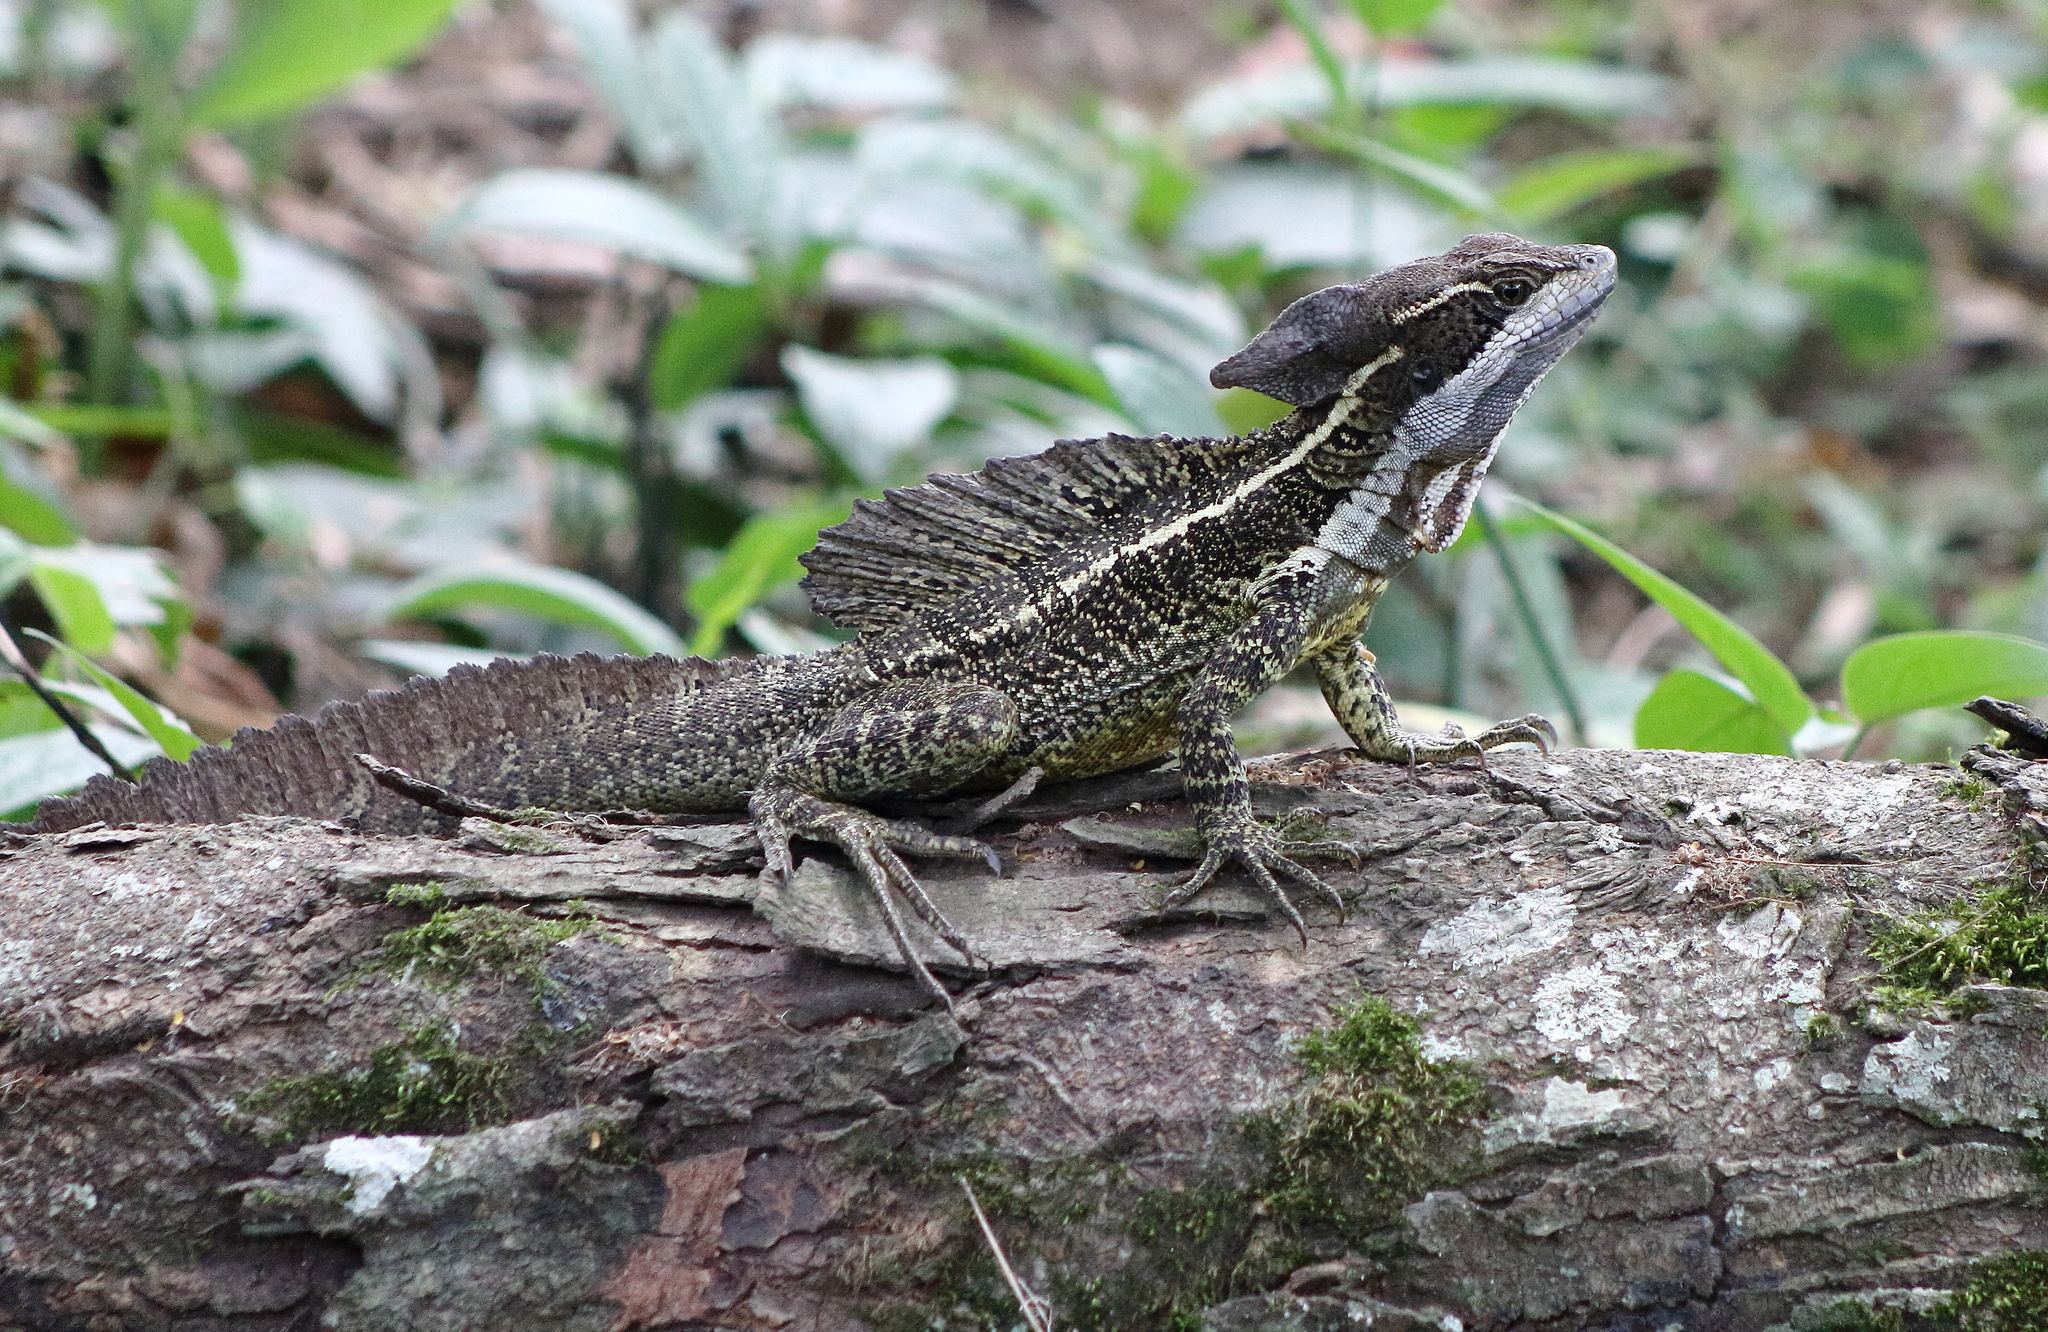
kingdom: Animalia
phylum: Chordata
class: Squamata
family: Corytophanidae
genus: Basiliscus
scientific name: Basiliscus basiliscus
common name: Common basilisk
